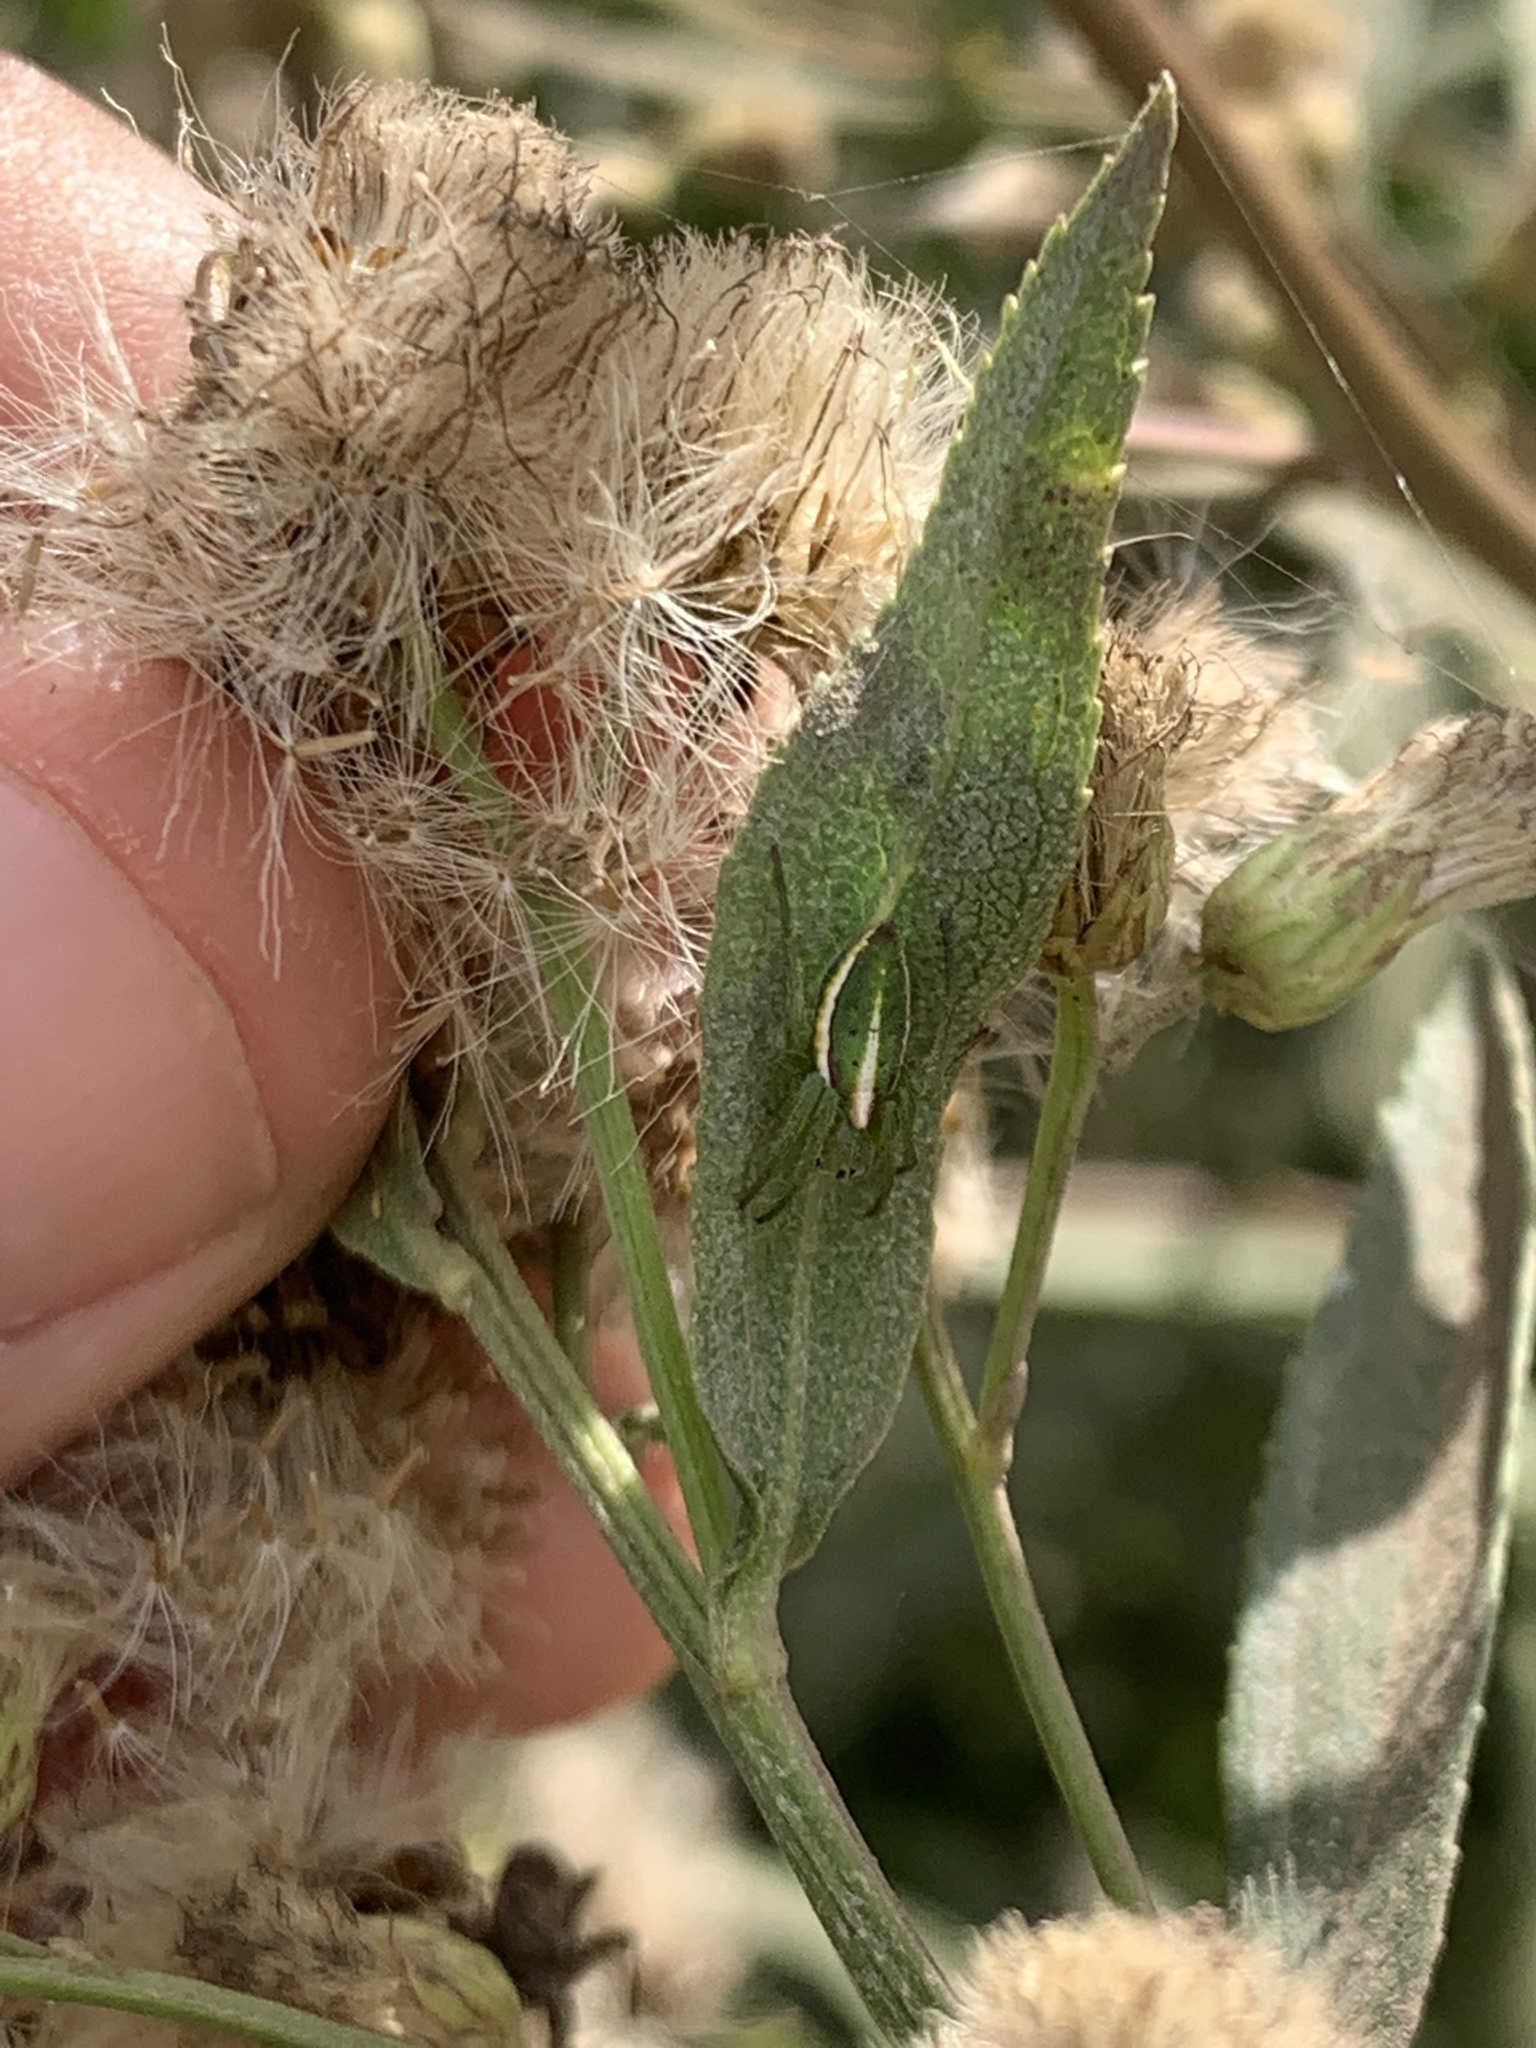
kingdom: Animalia
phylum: Arthropoda
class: Arachnida
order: Araneae
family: Araneidae
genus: Alpaida
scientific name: Alpaida rostratula
